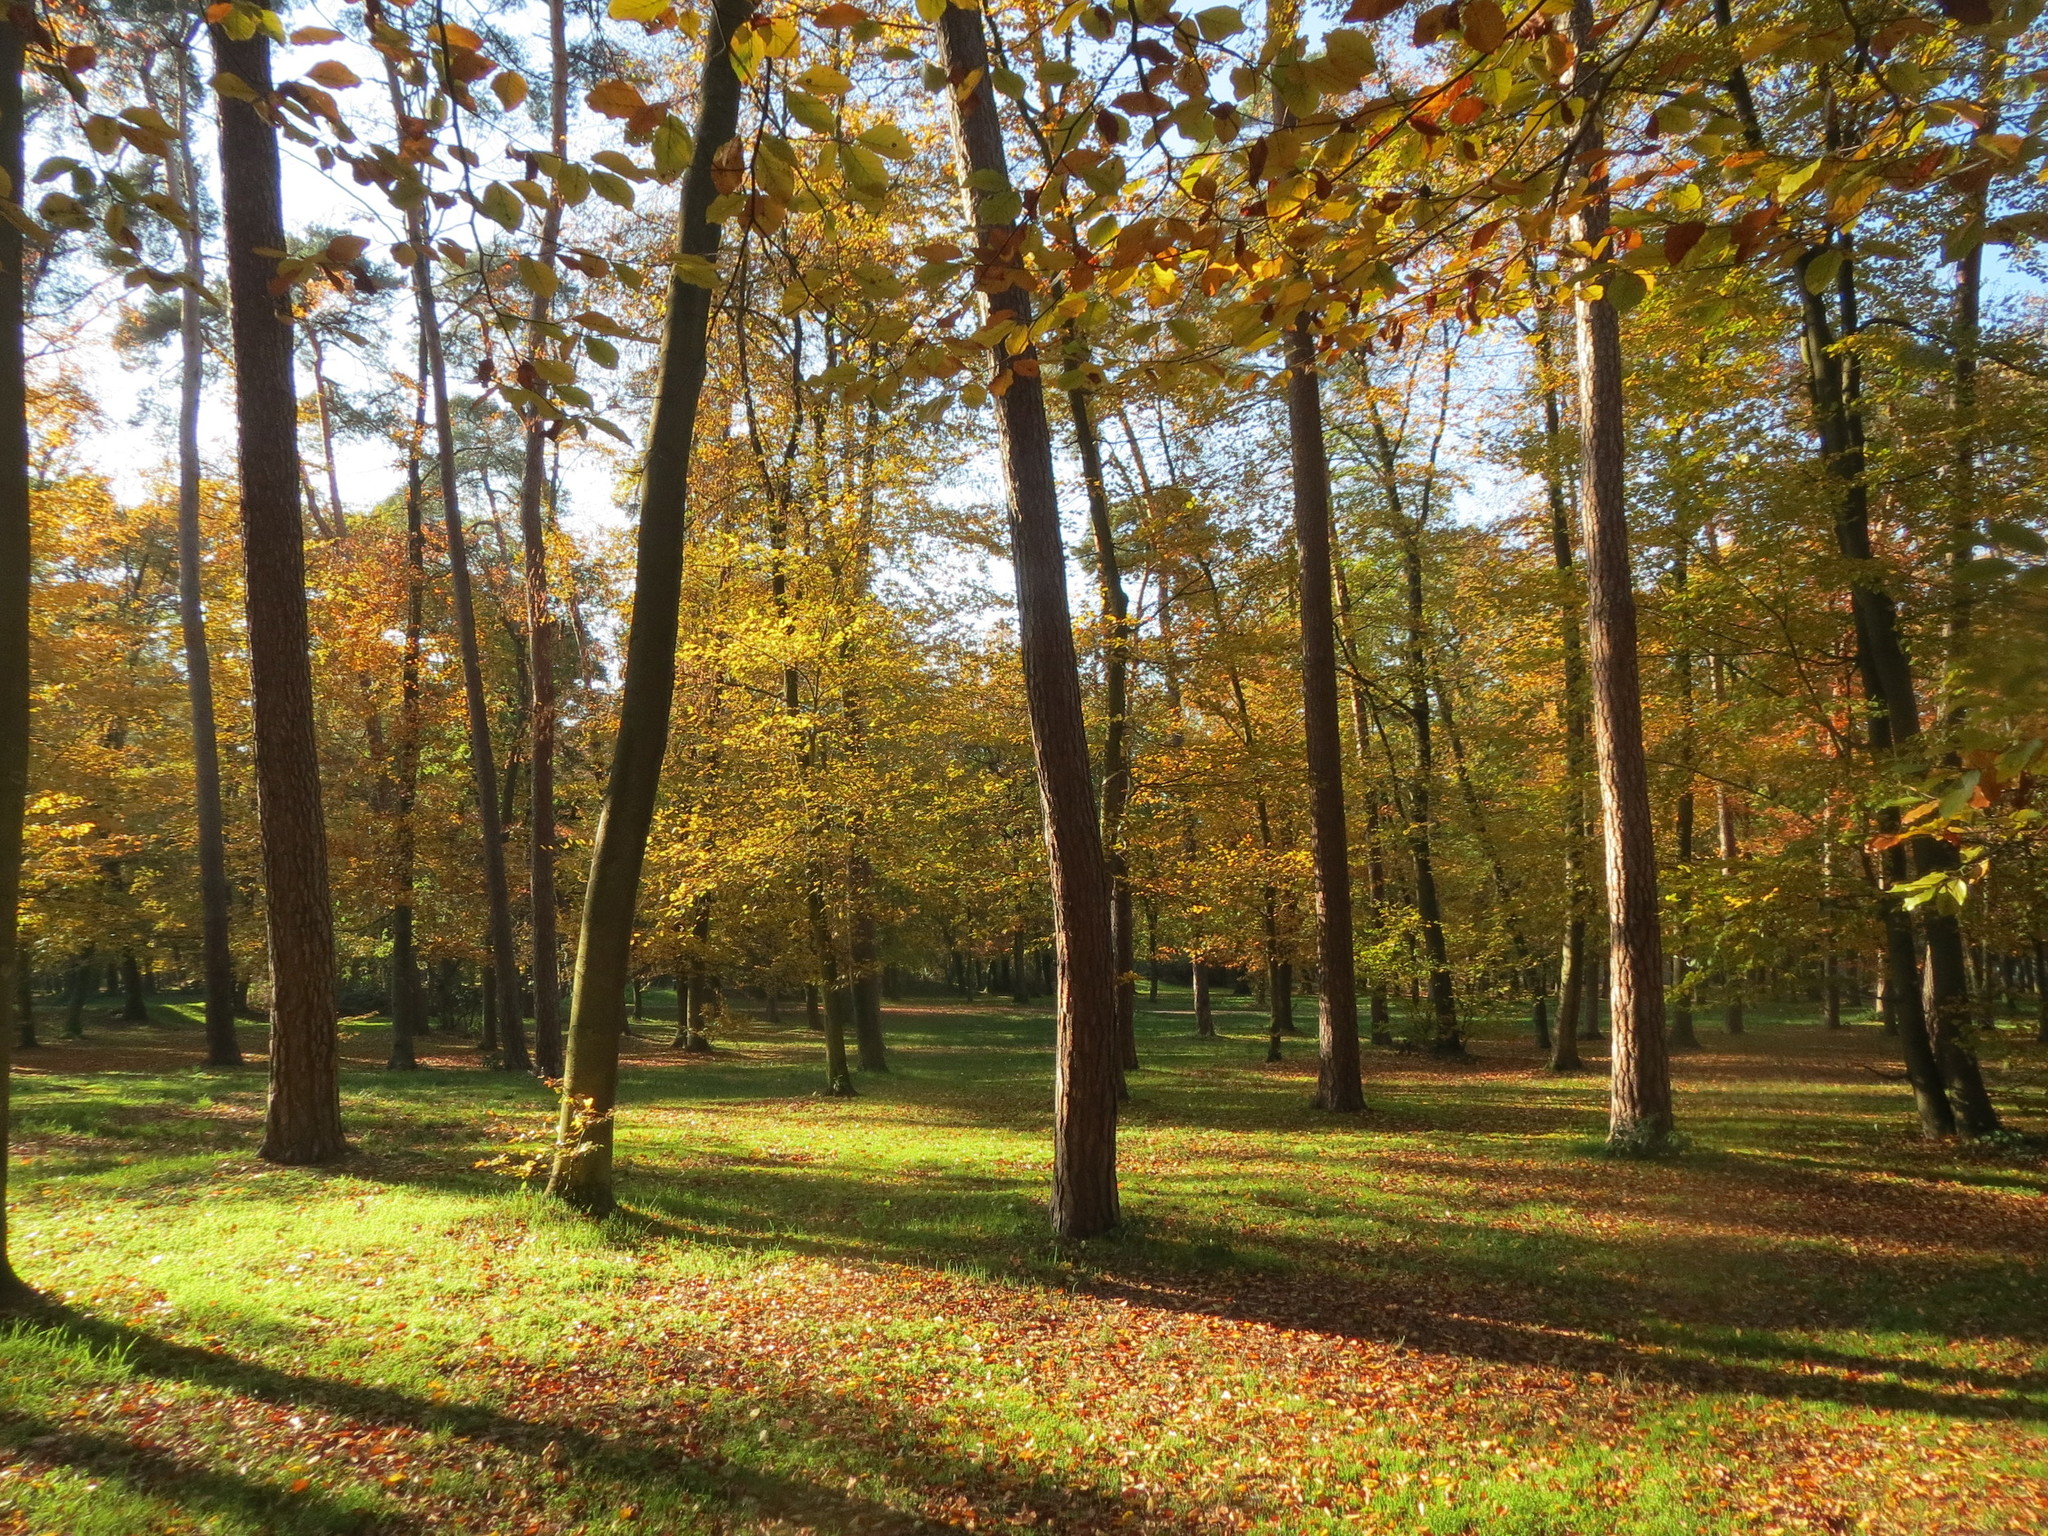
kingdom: Plantae
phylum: Tracheophyta
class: Magnoliopsida
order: Fagales
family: Fagaceae
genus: Fagus
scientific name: Fagus sylvatica
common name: Beech
